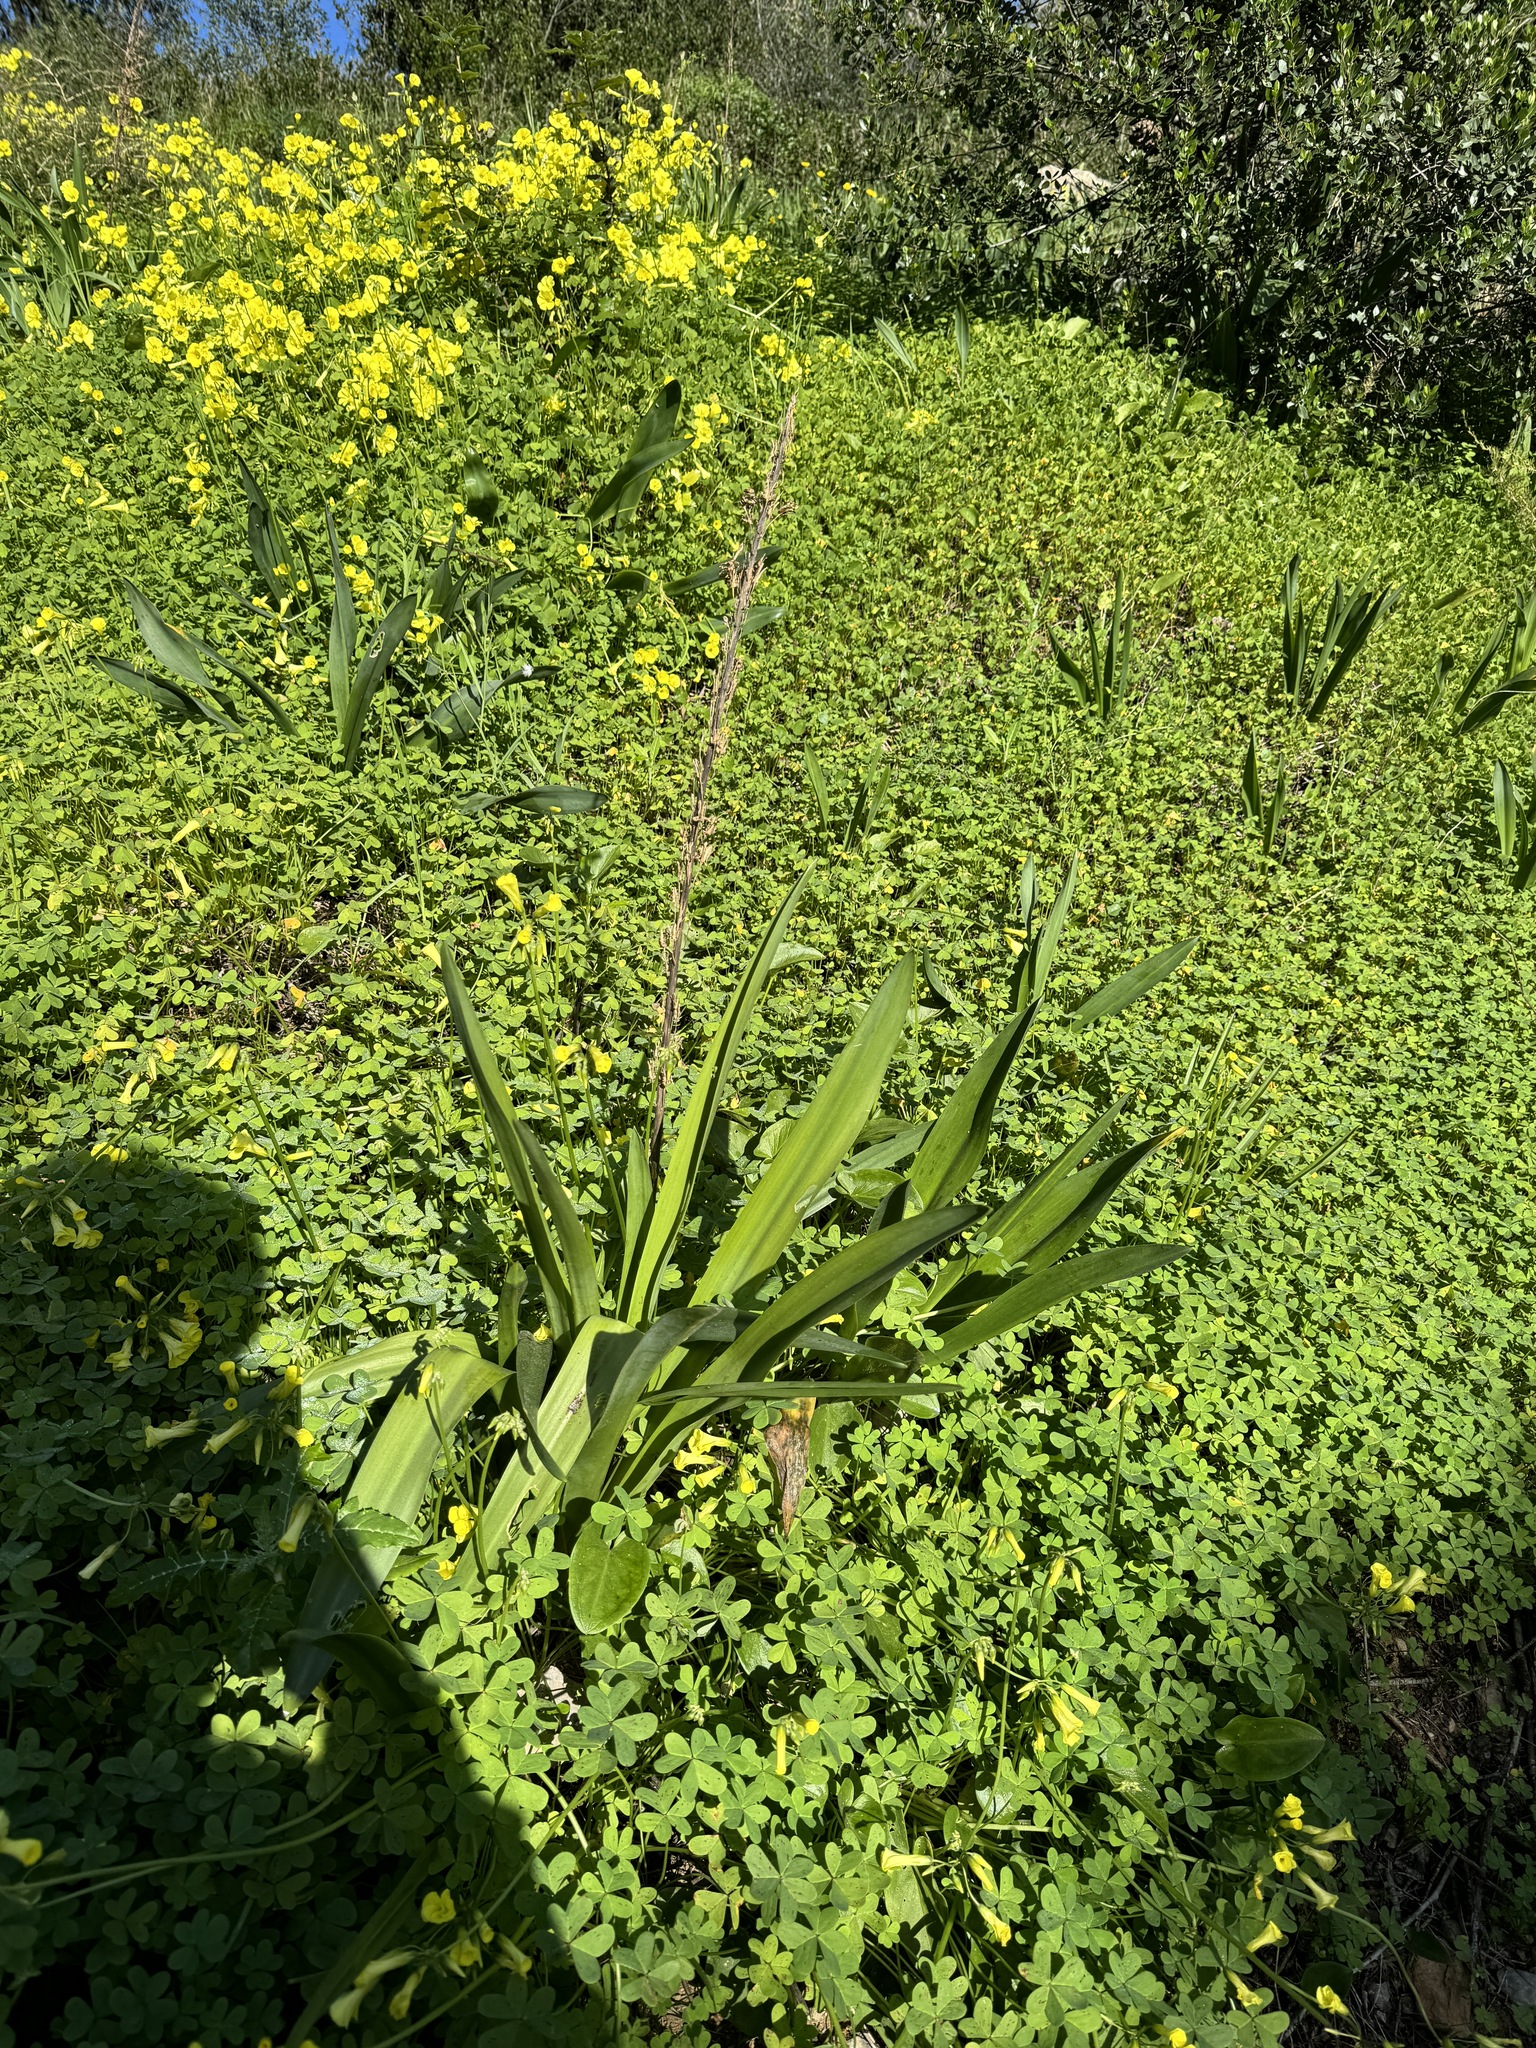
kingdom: Plantae
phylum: Tracheophyta
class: Liliopsida
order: Asparagales
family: Asparagaceae
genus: Drimia
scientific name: Drimia maritima
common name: Maritime squill
